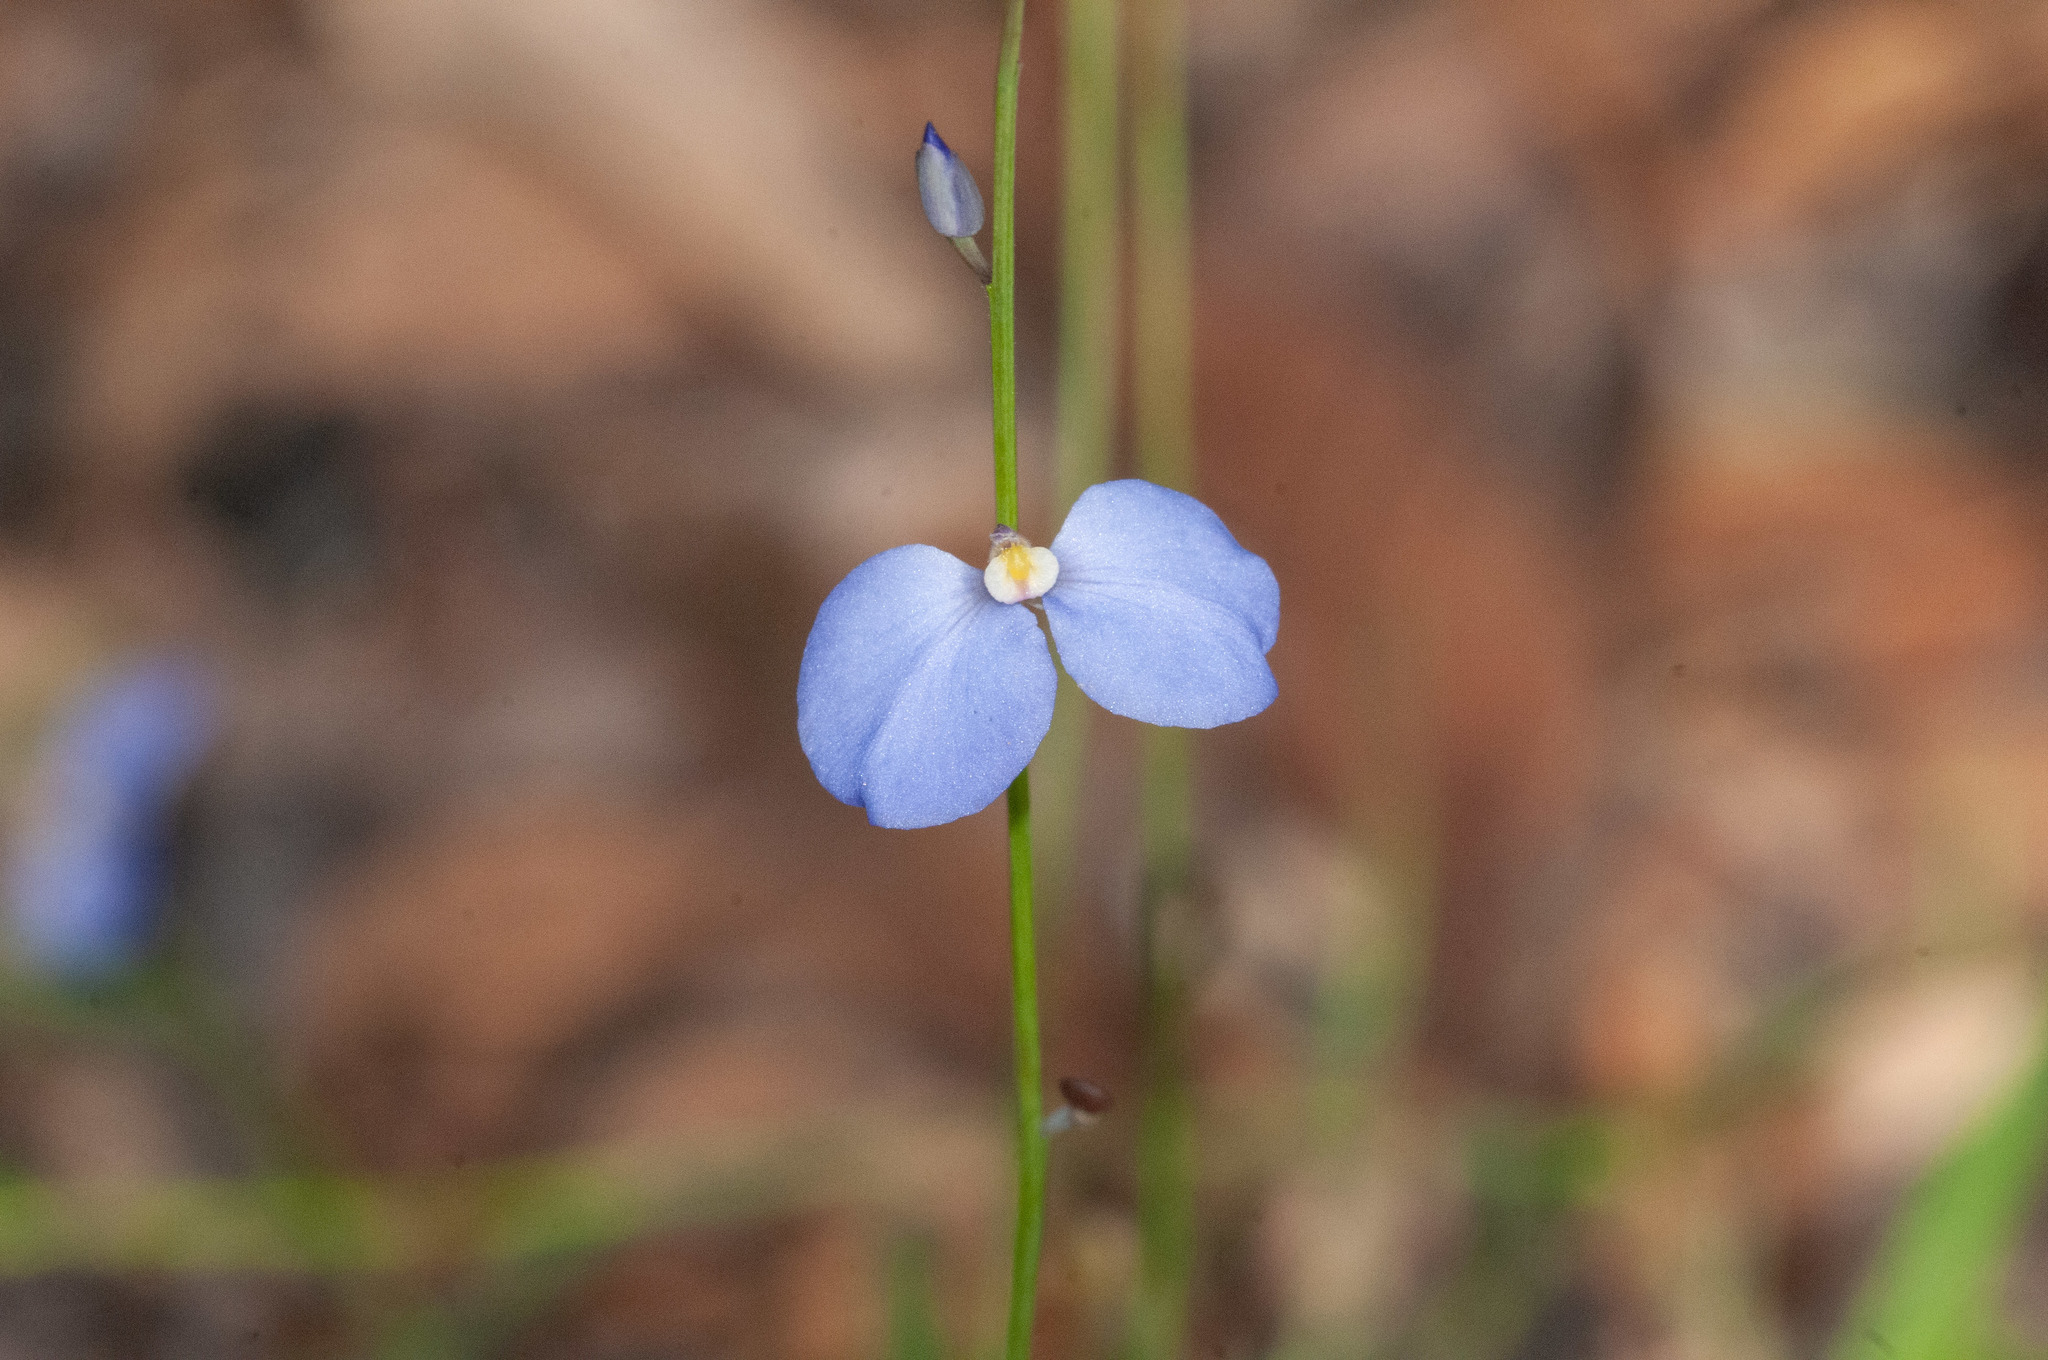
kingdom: Plantae
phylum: Tracheophyta
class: Magnoliopsida
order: Fabales
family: Polygalaceae
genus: Comesperma
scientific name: Comesperma sphaerocarpum
